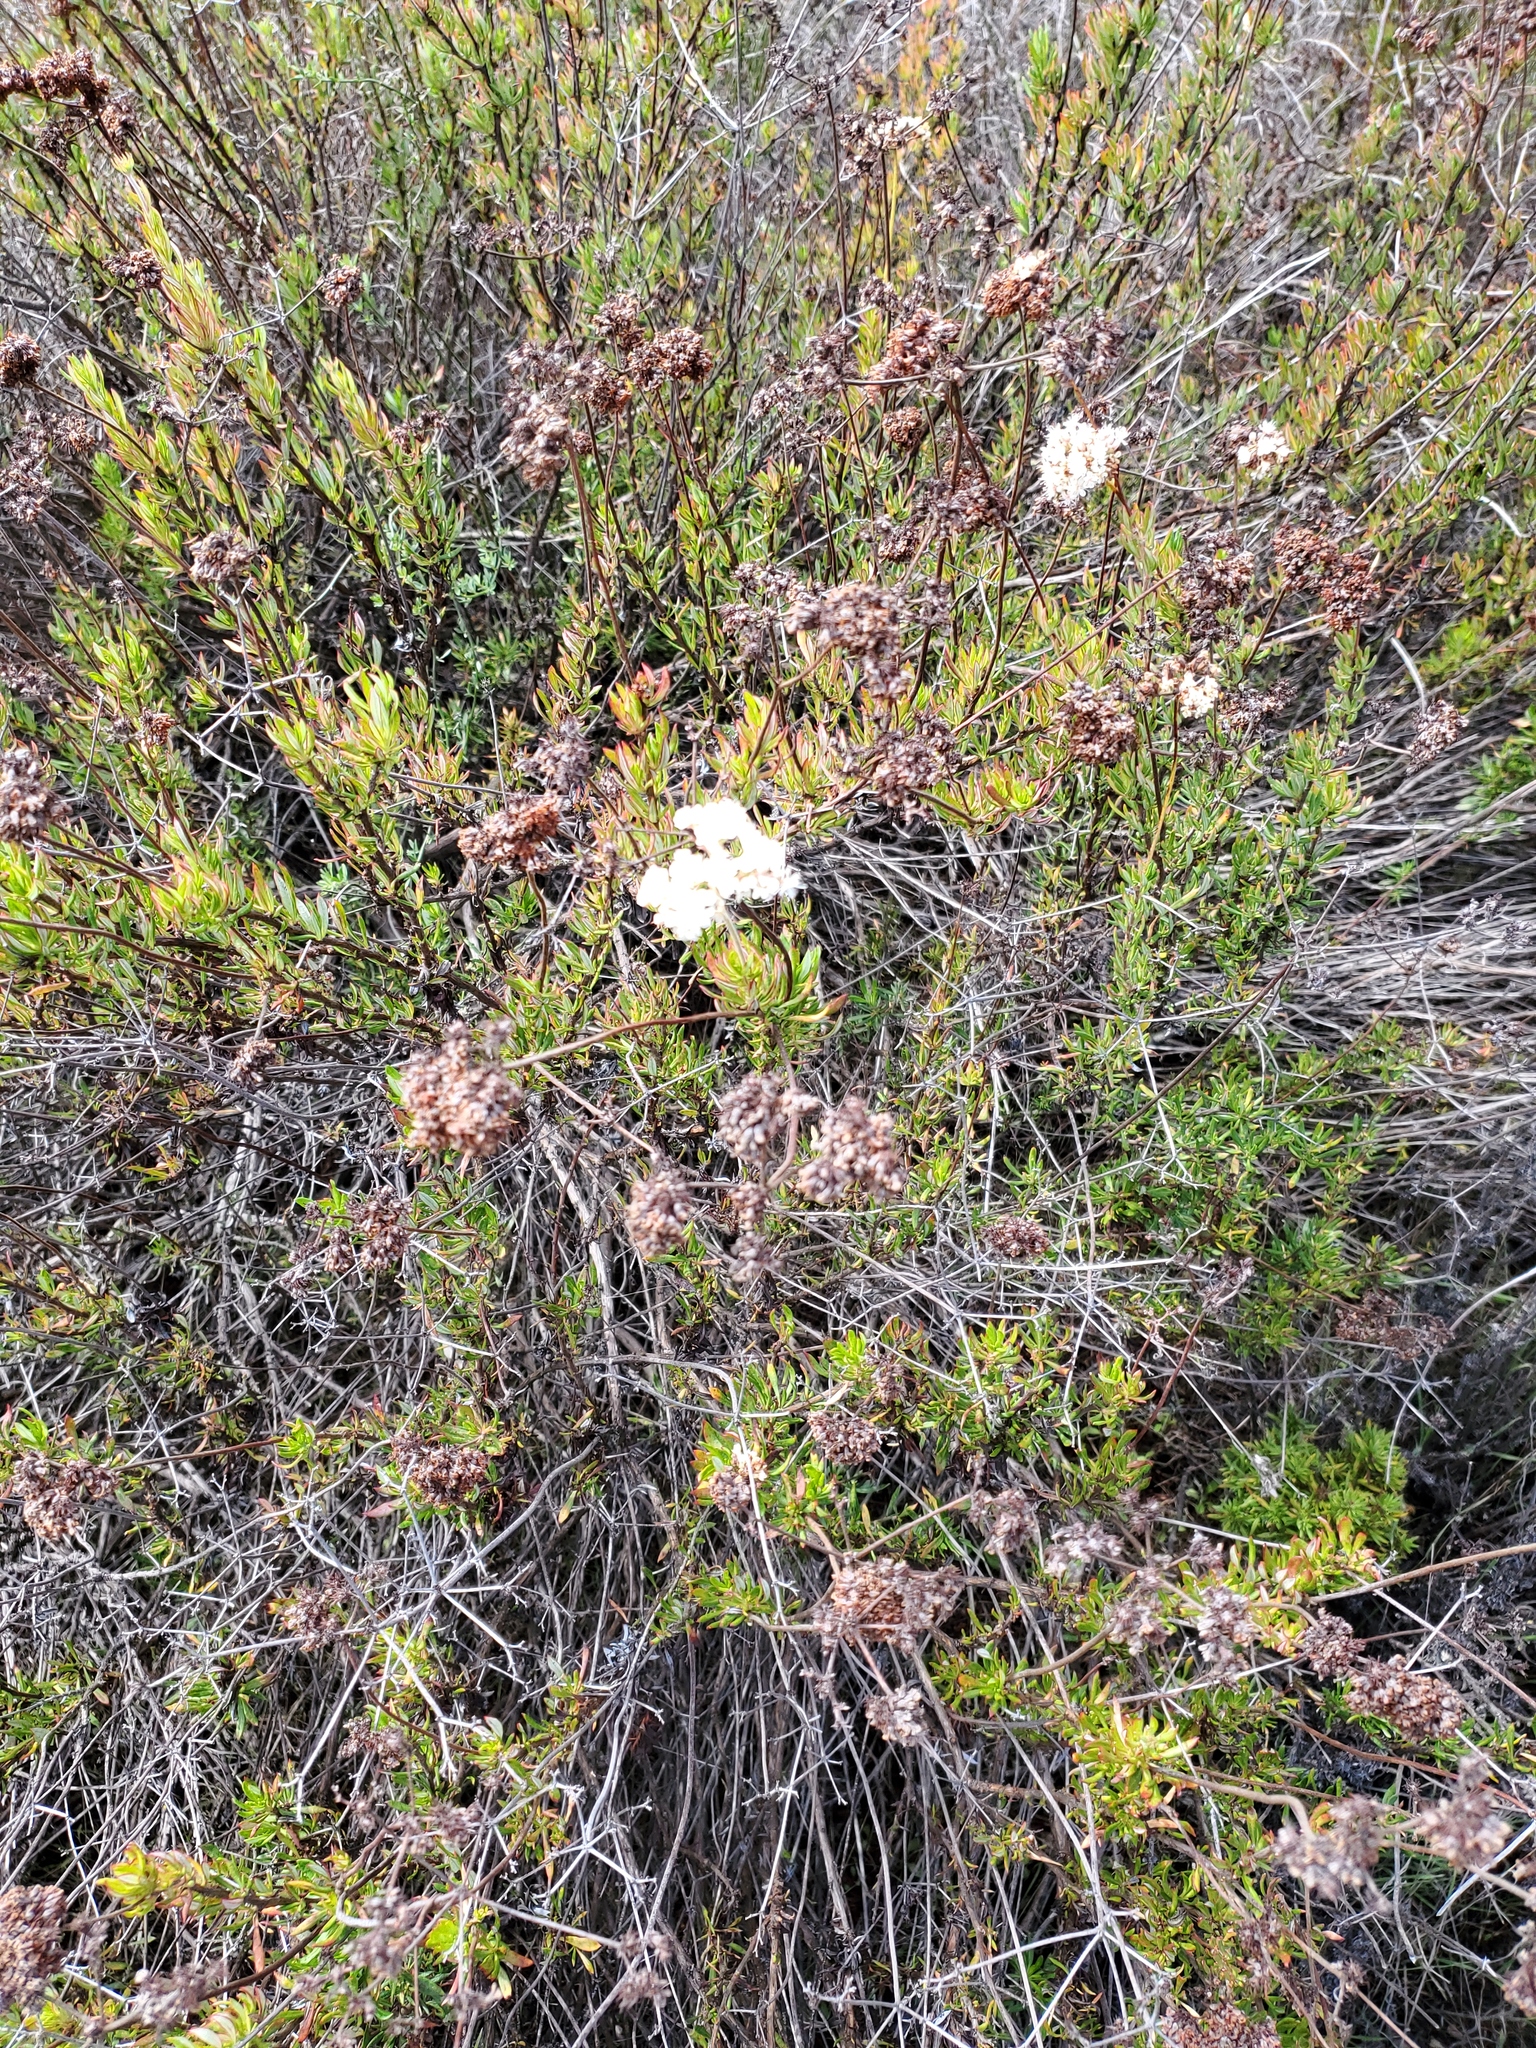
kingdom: Plantae
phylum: Tracheophyta
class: Magnoliopsida
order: Caryophyllales
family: Polygonaceae
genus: Eriogonum
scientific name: Eriogonum fasciculatum
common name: California wild buckwheat
